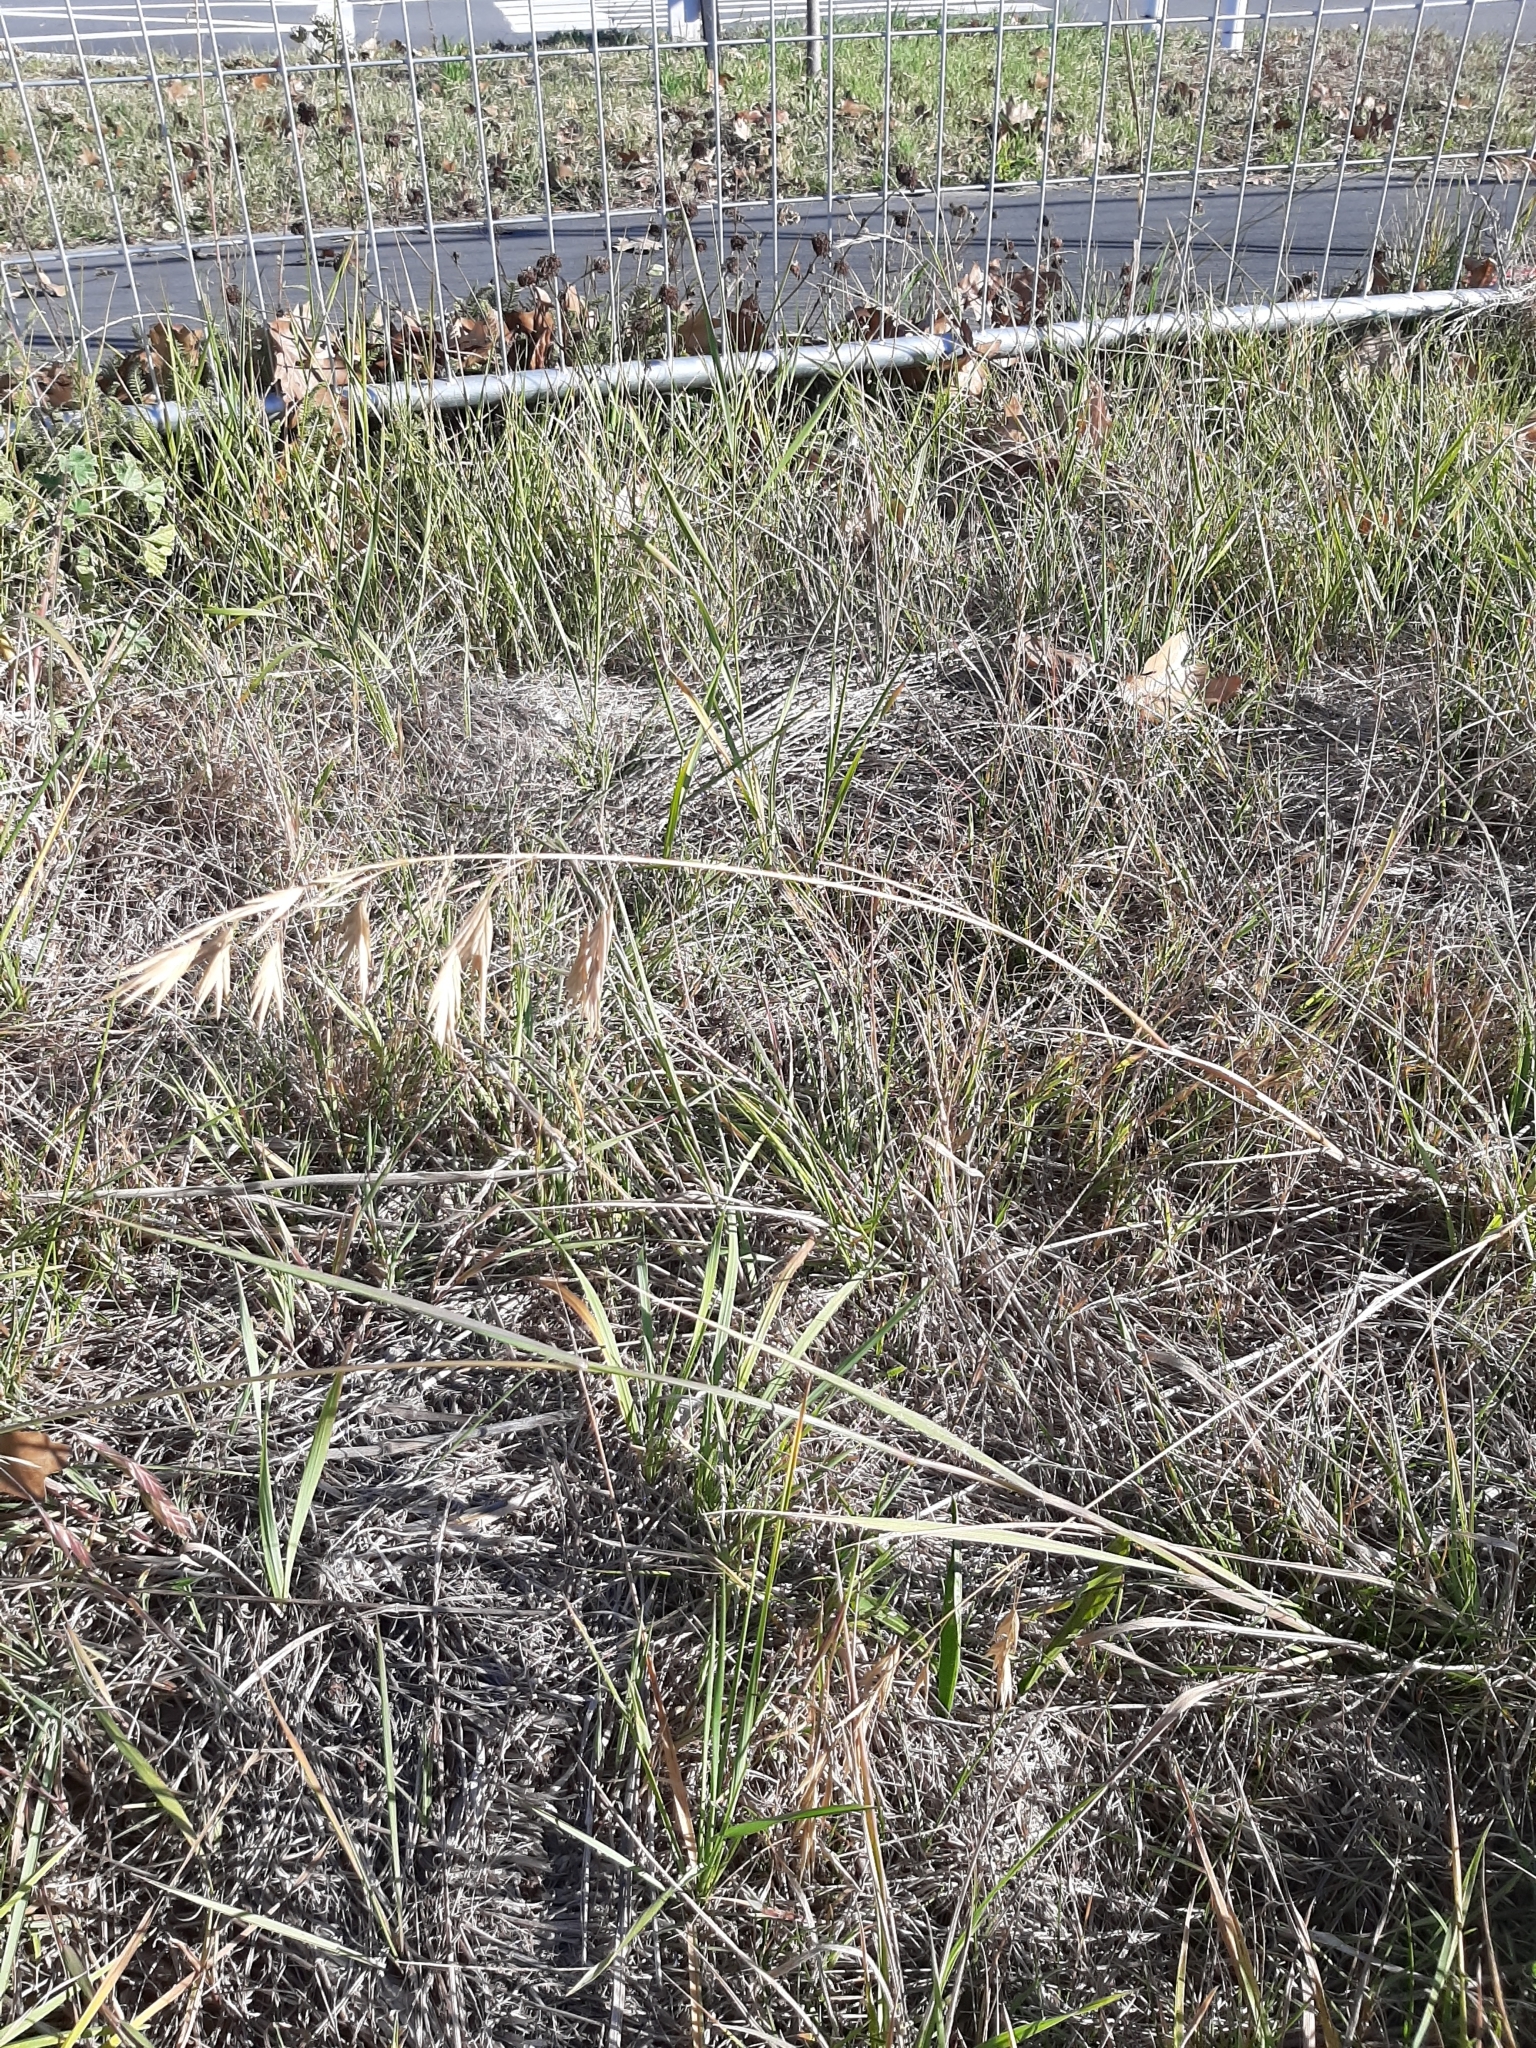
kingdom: Plantae
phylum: Tracheophyta
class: Liliopsida
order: Poales
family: Poaceae
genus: Bromus
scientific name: Bromus catharticus
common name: Rescuegrass
